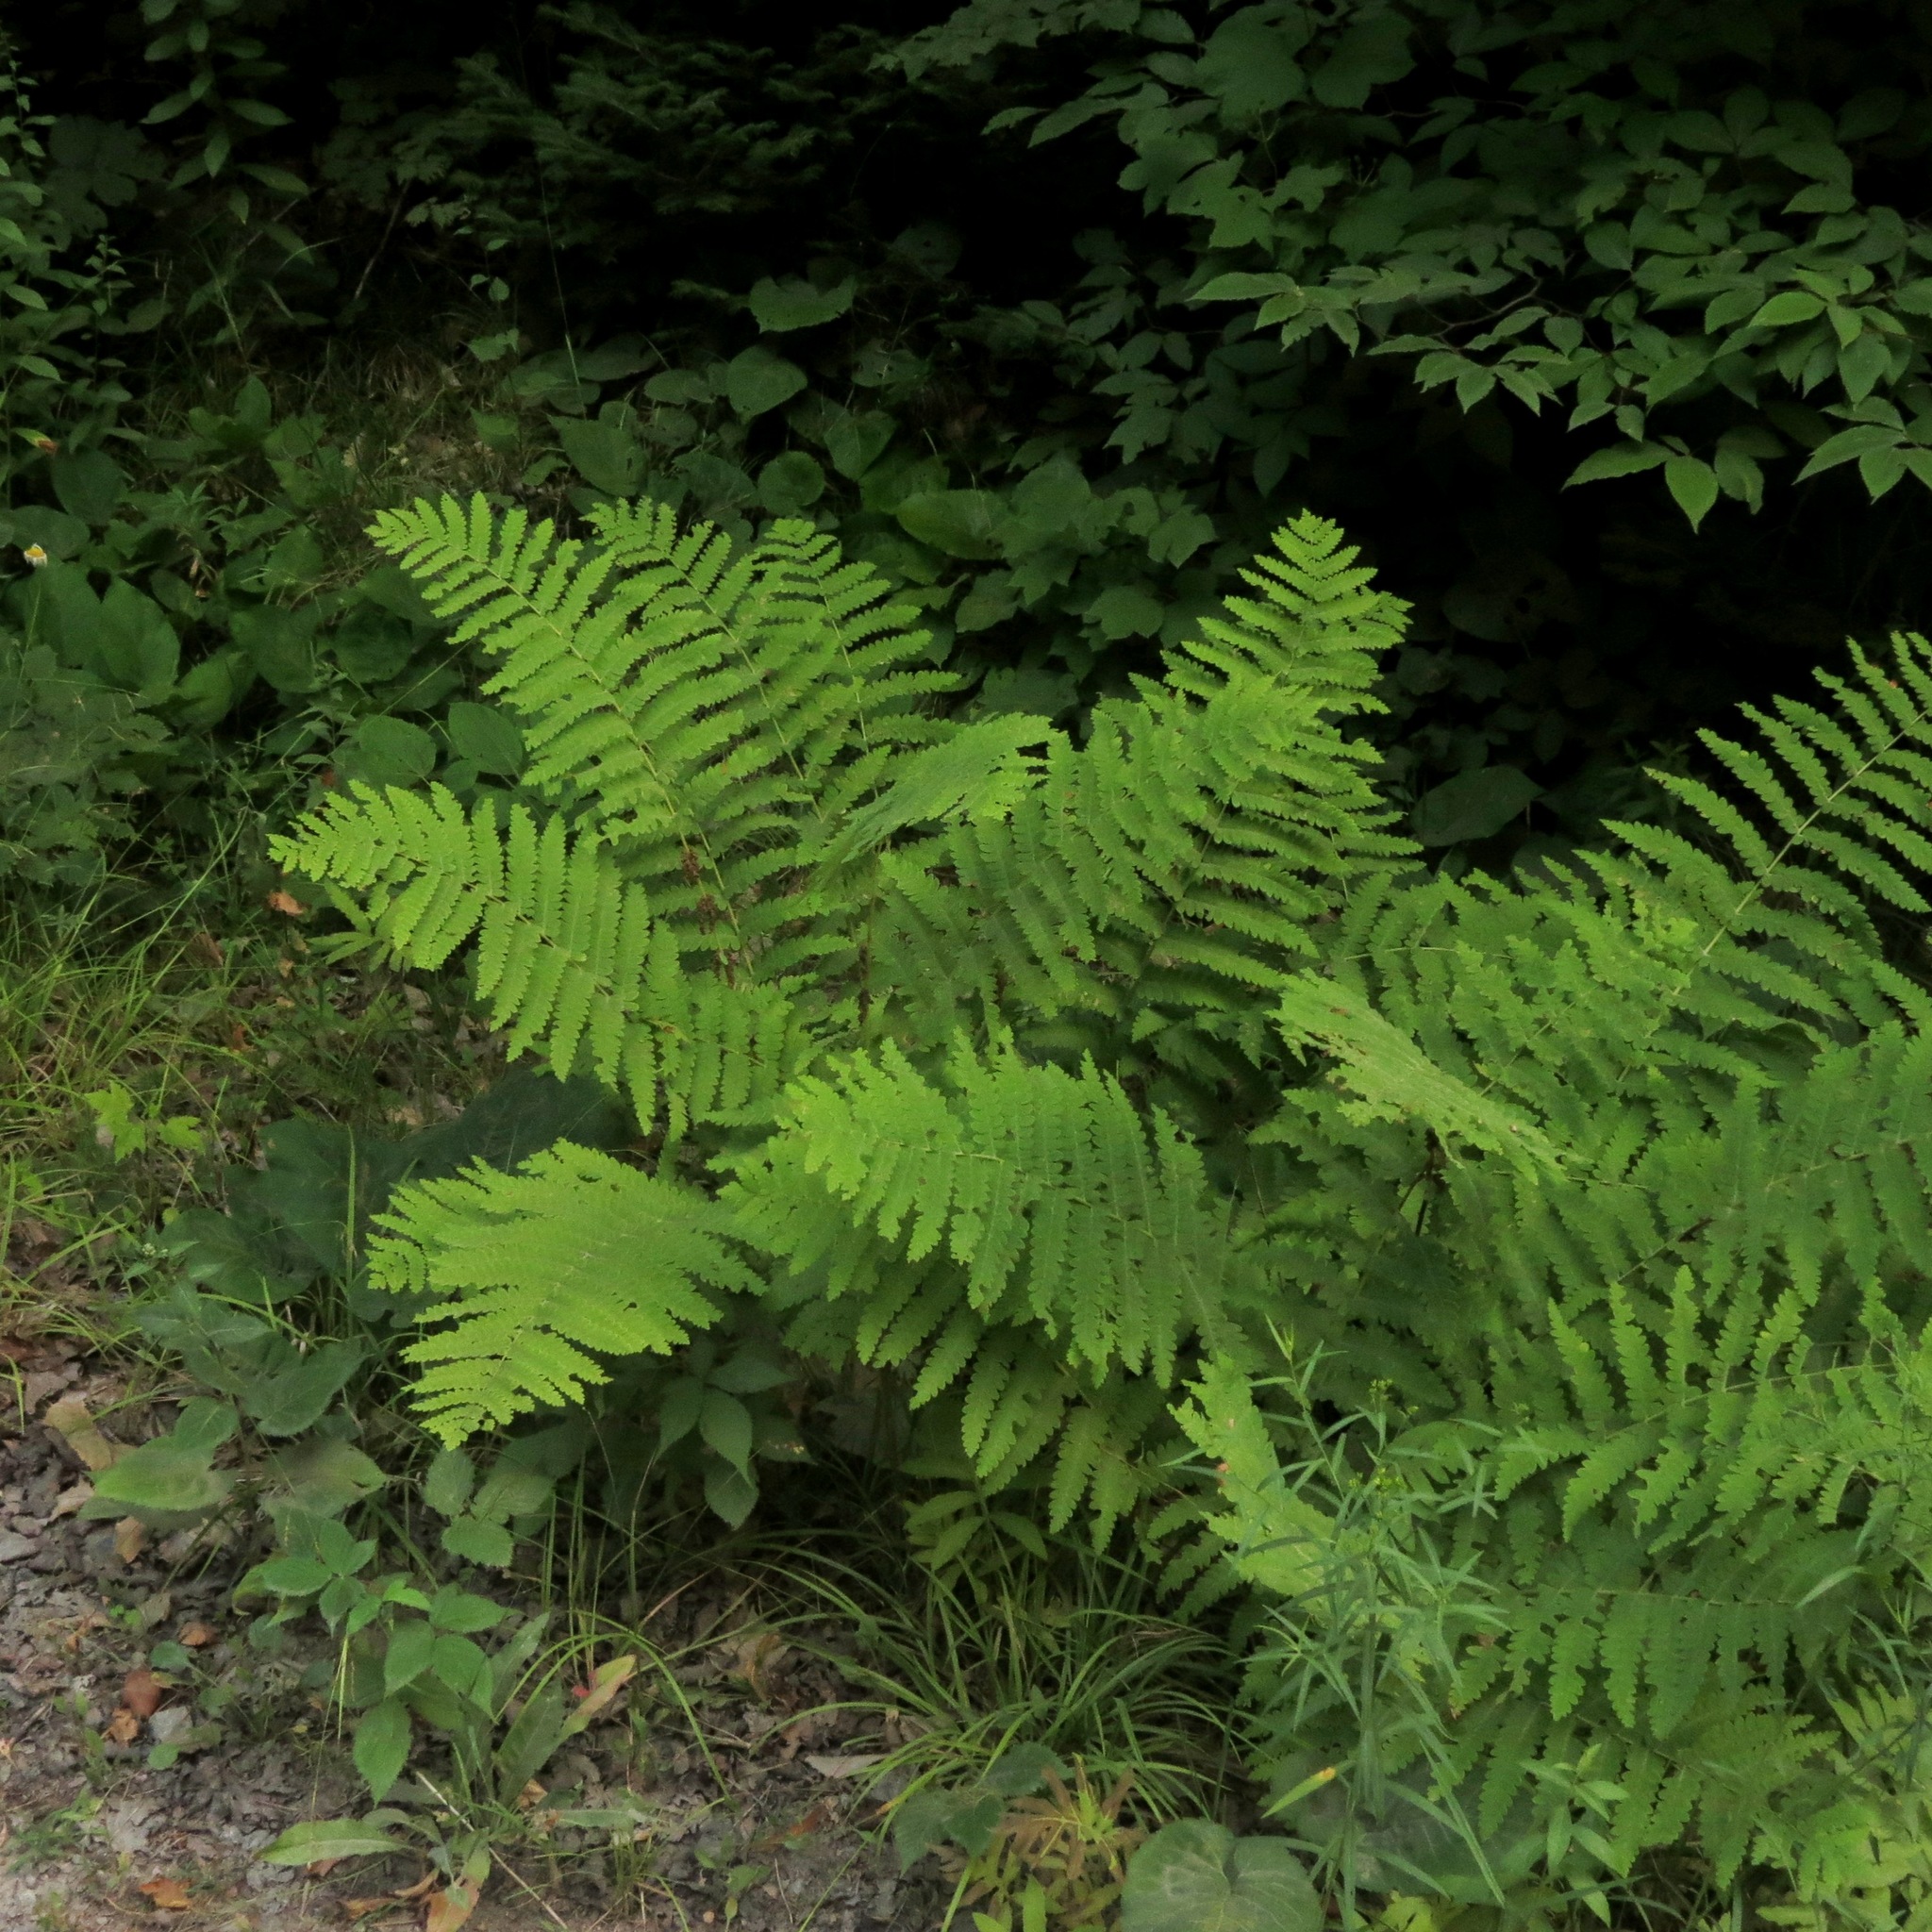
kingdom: Plantae
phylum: Tracheophyta
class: Polypodiopsida
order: Osmundales
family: Osmundaceae
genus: Claytosmunda
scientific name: Claytosmunda claytoniana
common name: Clayton's fern
